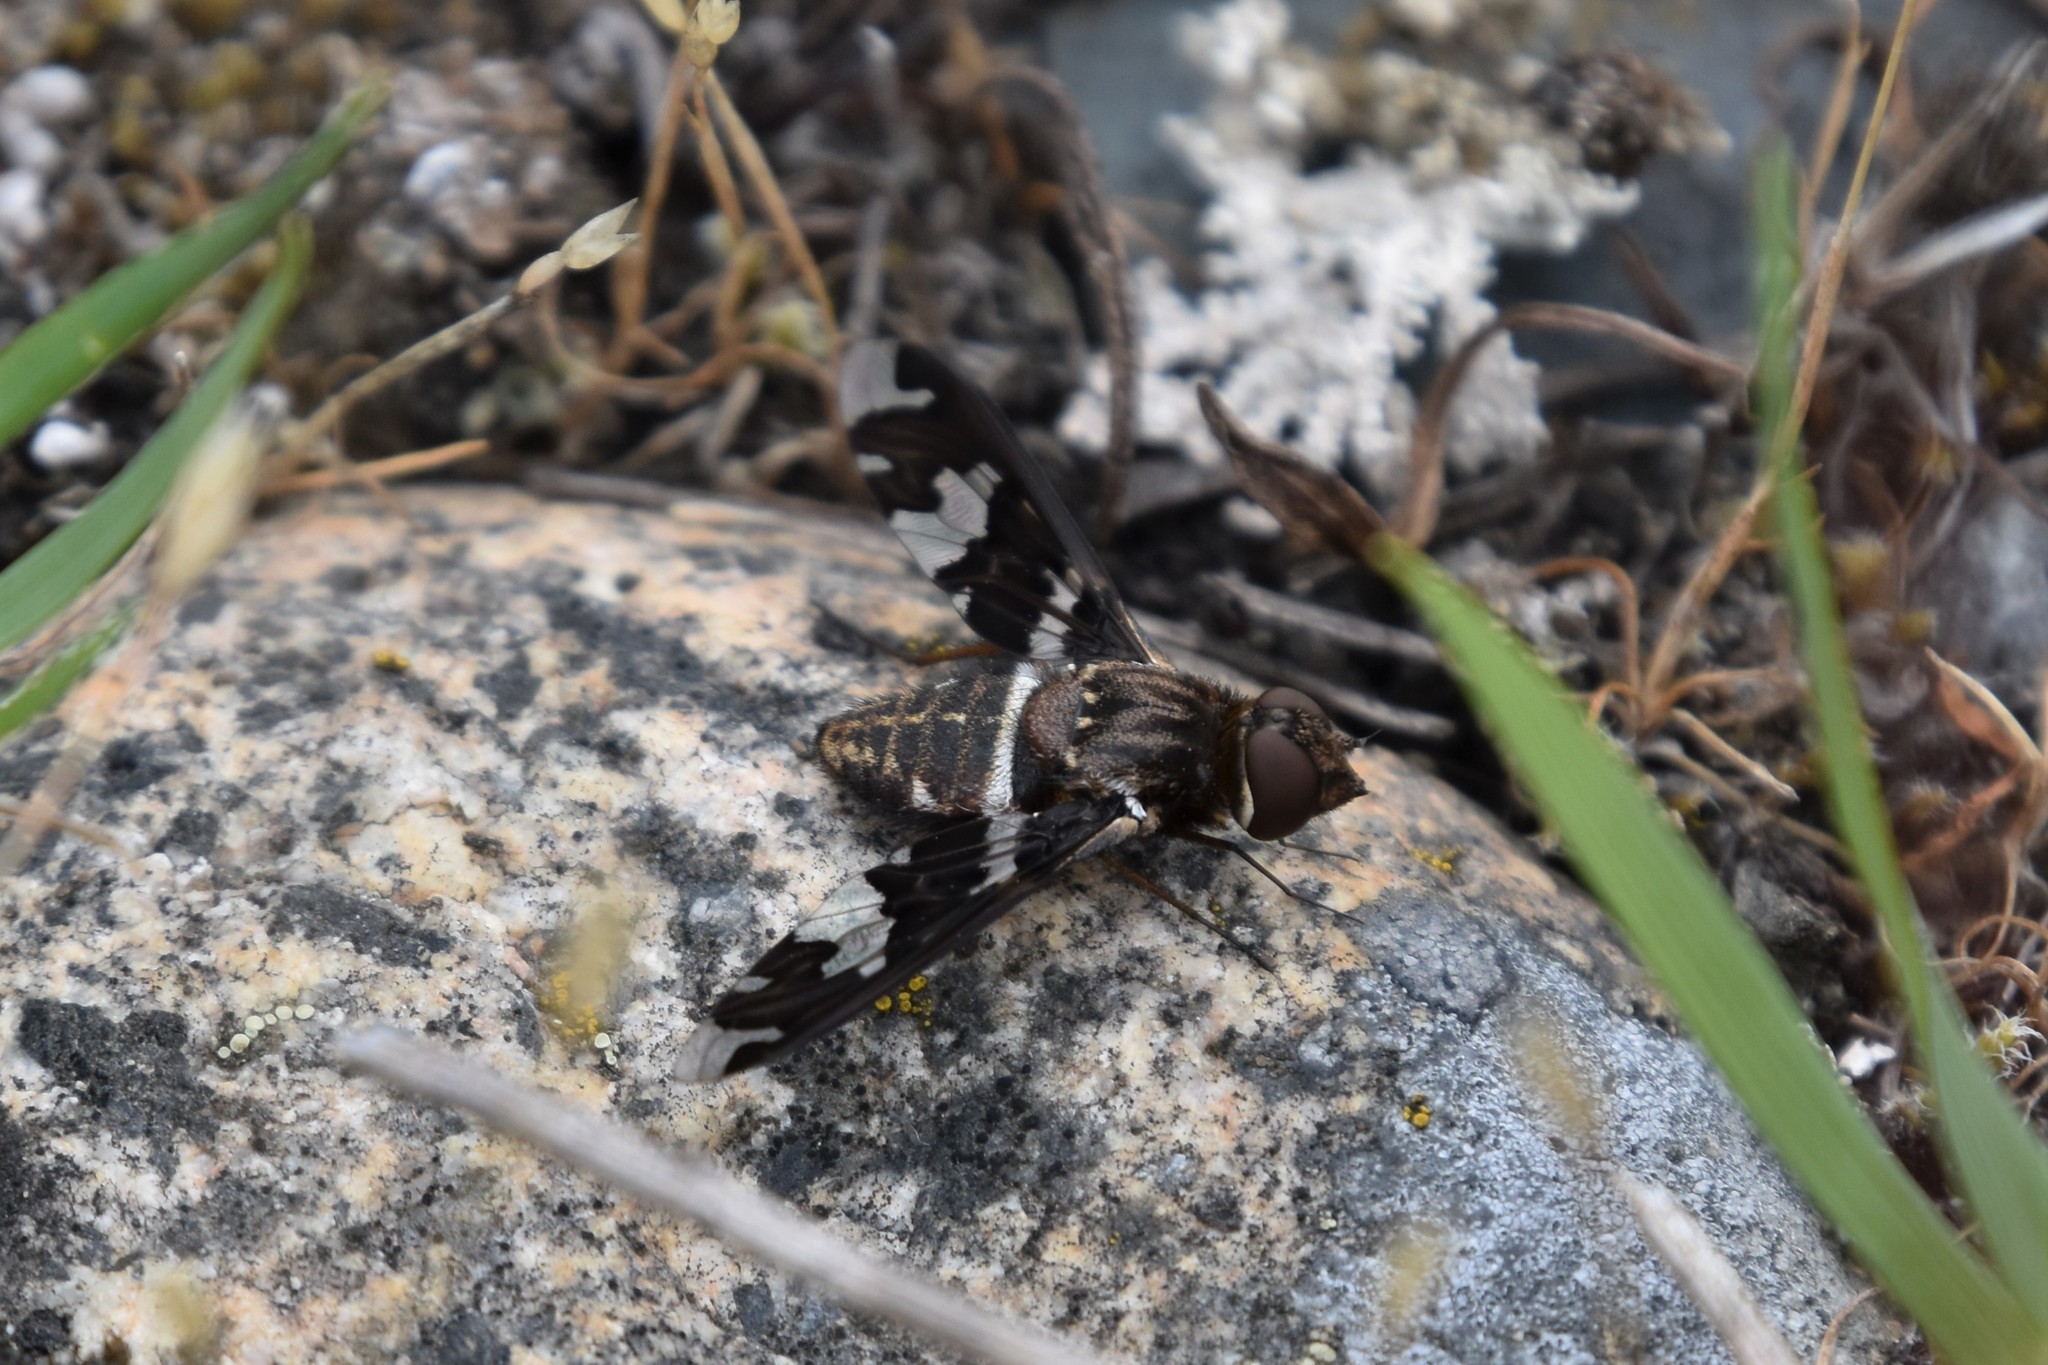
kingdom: Animalia
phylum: Arthropoda
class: Insecta
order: Diptera
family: Bombyliidae
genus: Exoprosopa
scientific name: Exoprosopa dorcadion
